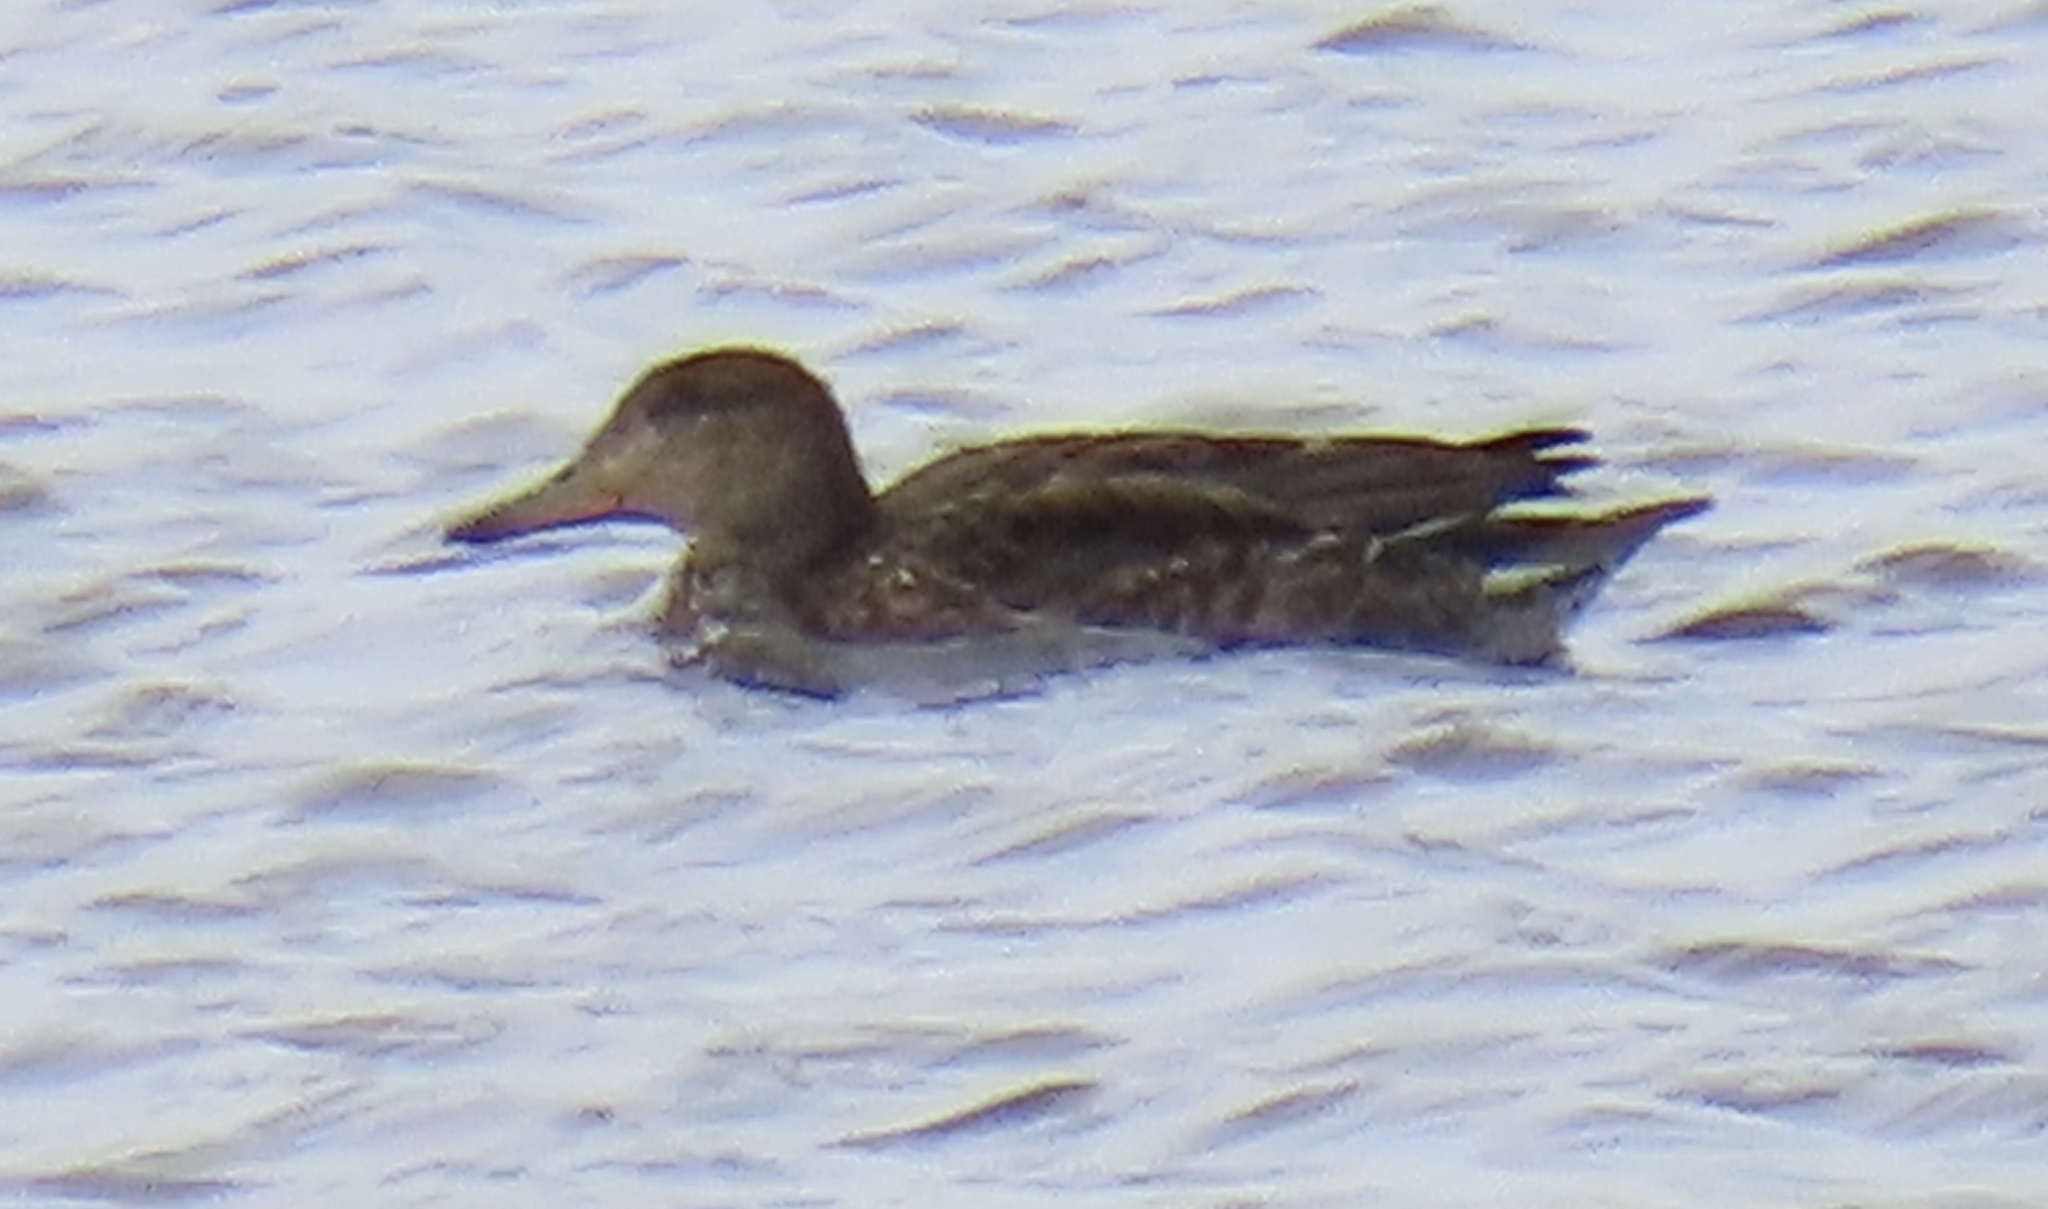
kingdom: Animalia
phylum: Chordata
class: Aves
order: Anseriformes
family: Anatidae
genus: Anas
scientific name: Anas crecca
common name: Eurasian teal
